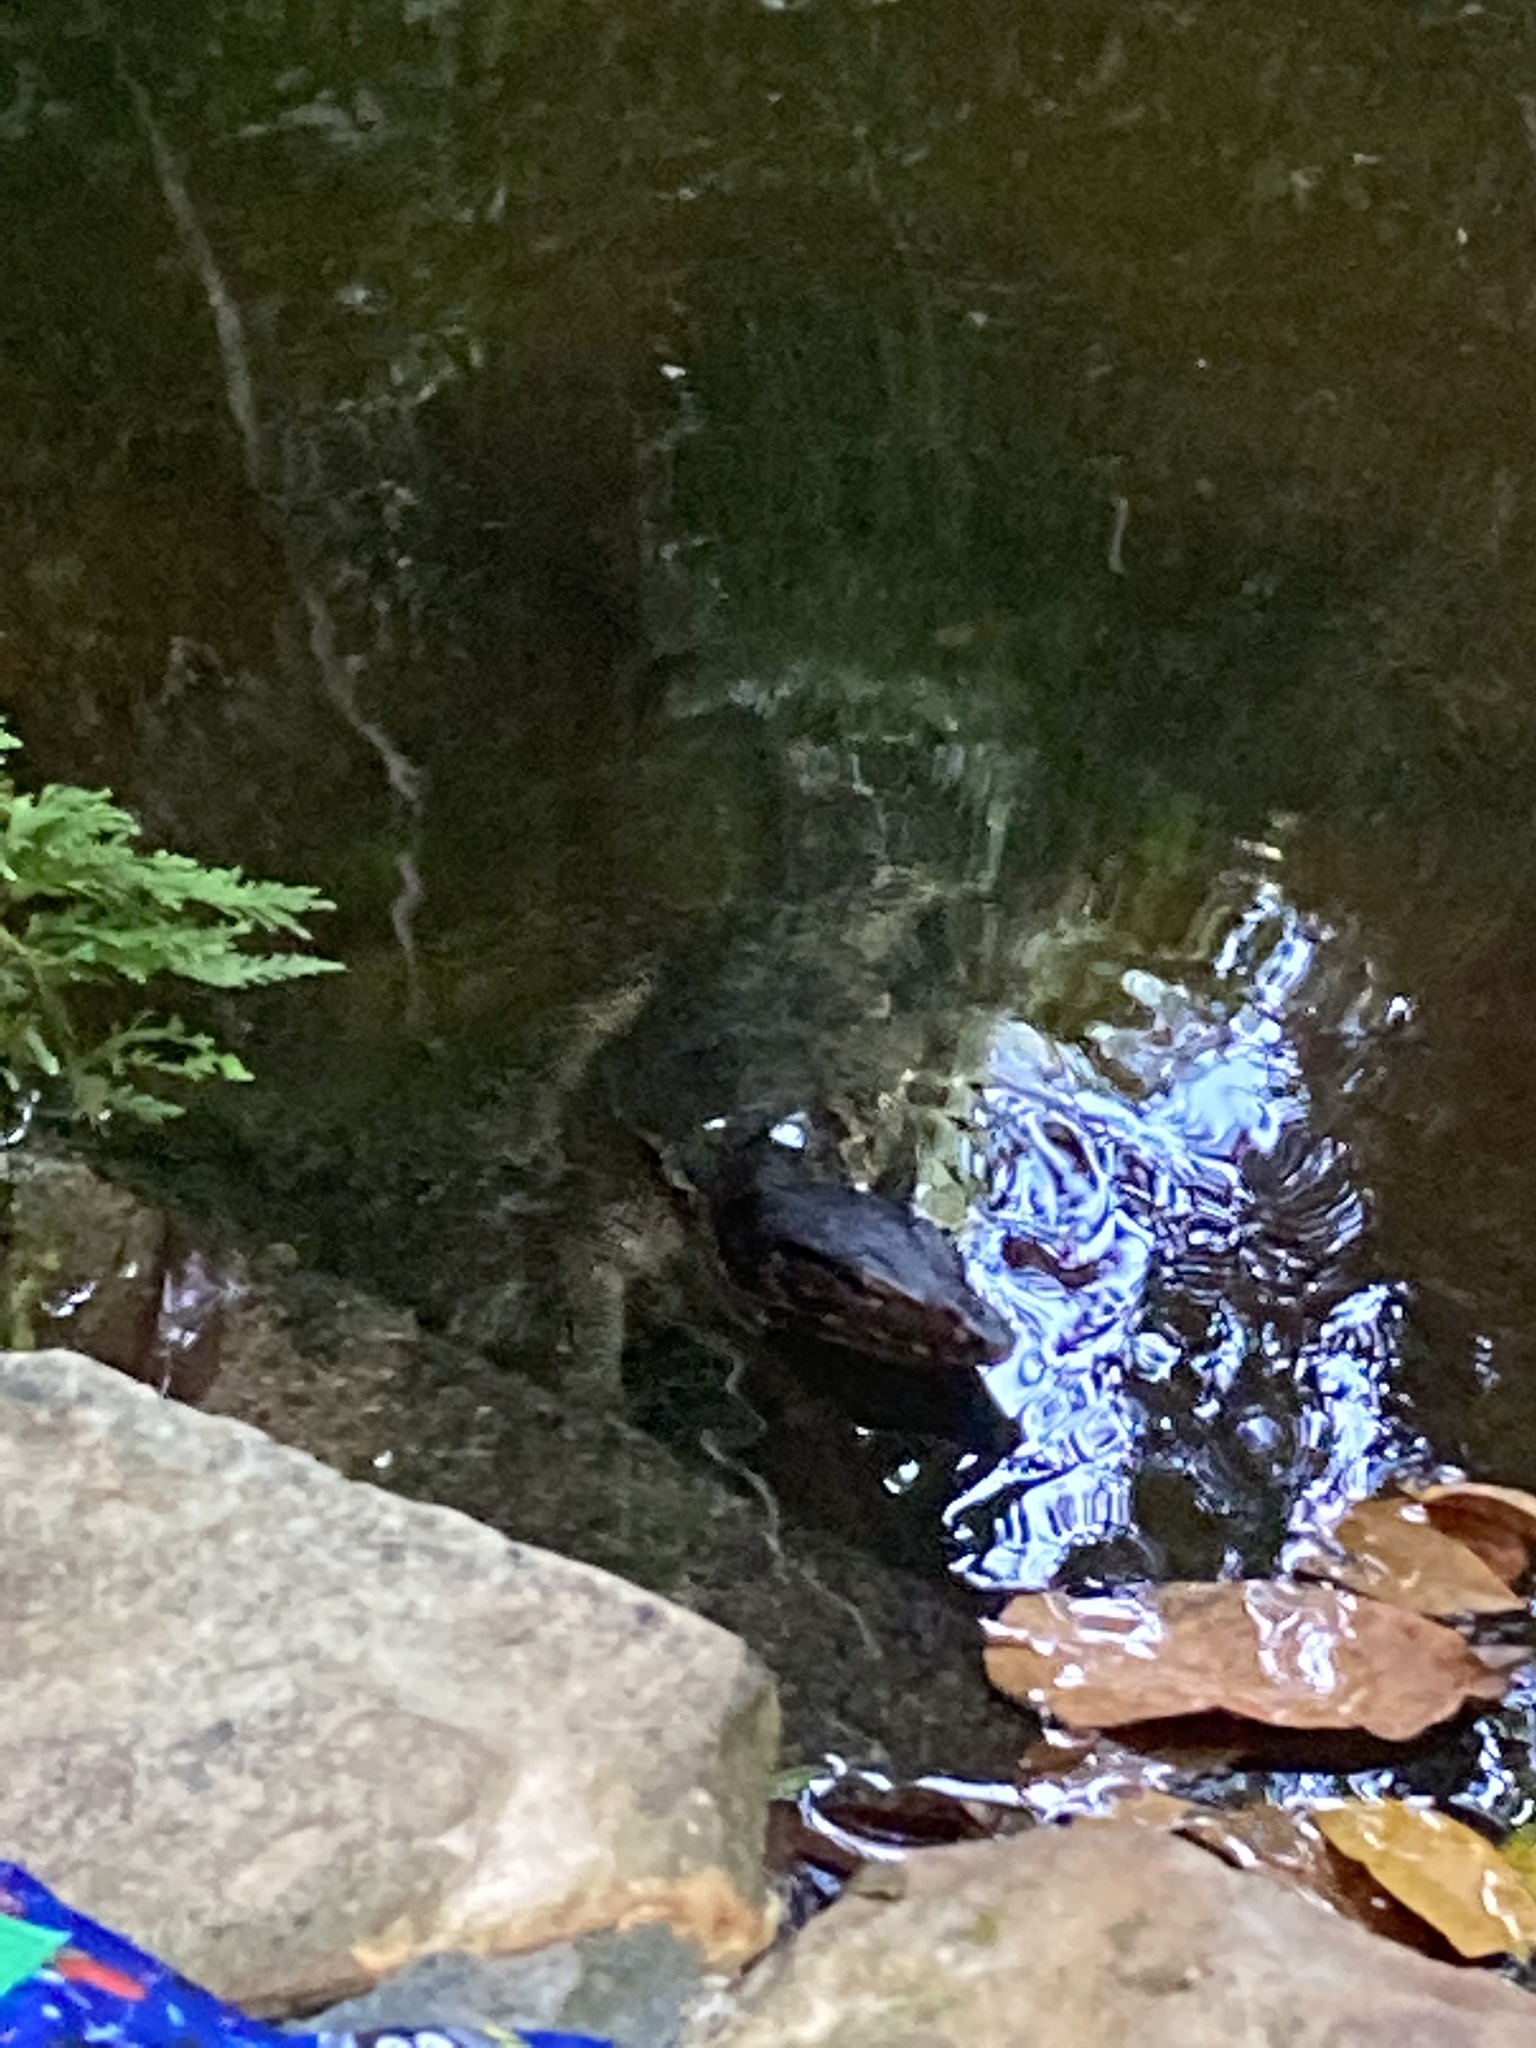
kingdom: Animalia
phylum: Chordata
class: Squamata
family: Varanidae
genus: Varanus
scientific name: Varanus salvator
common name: Common water monitor
